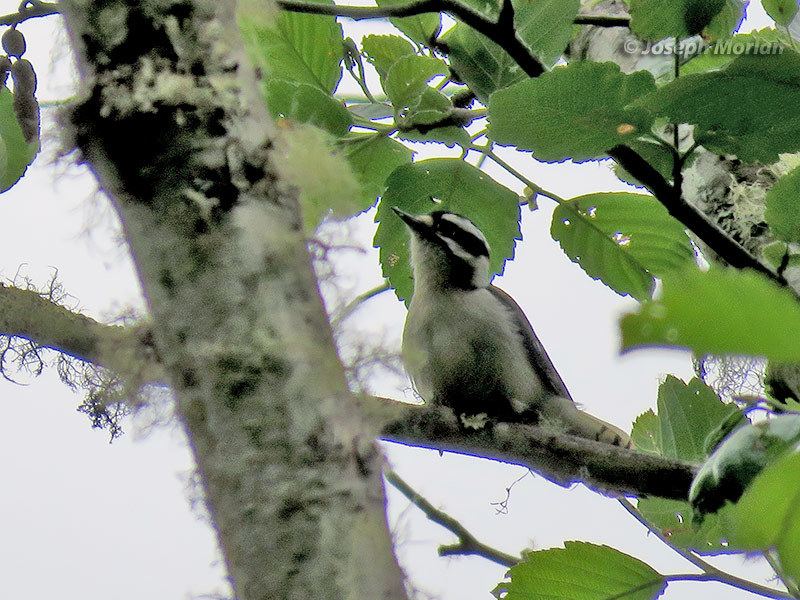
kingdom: Animalia
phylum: Chordata
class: Aves
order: Piciformes
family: Picidae
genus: Dryobates
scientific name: Dryobates pubescens
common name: Downy woodpecker
